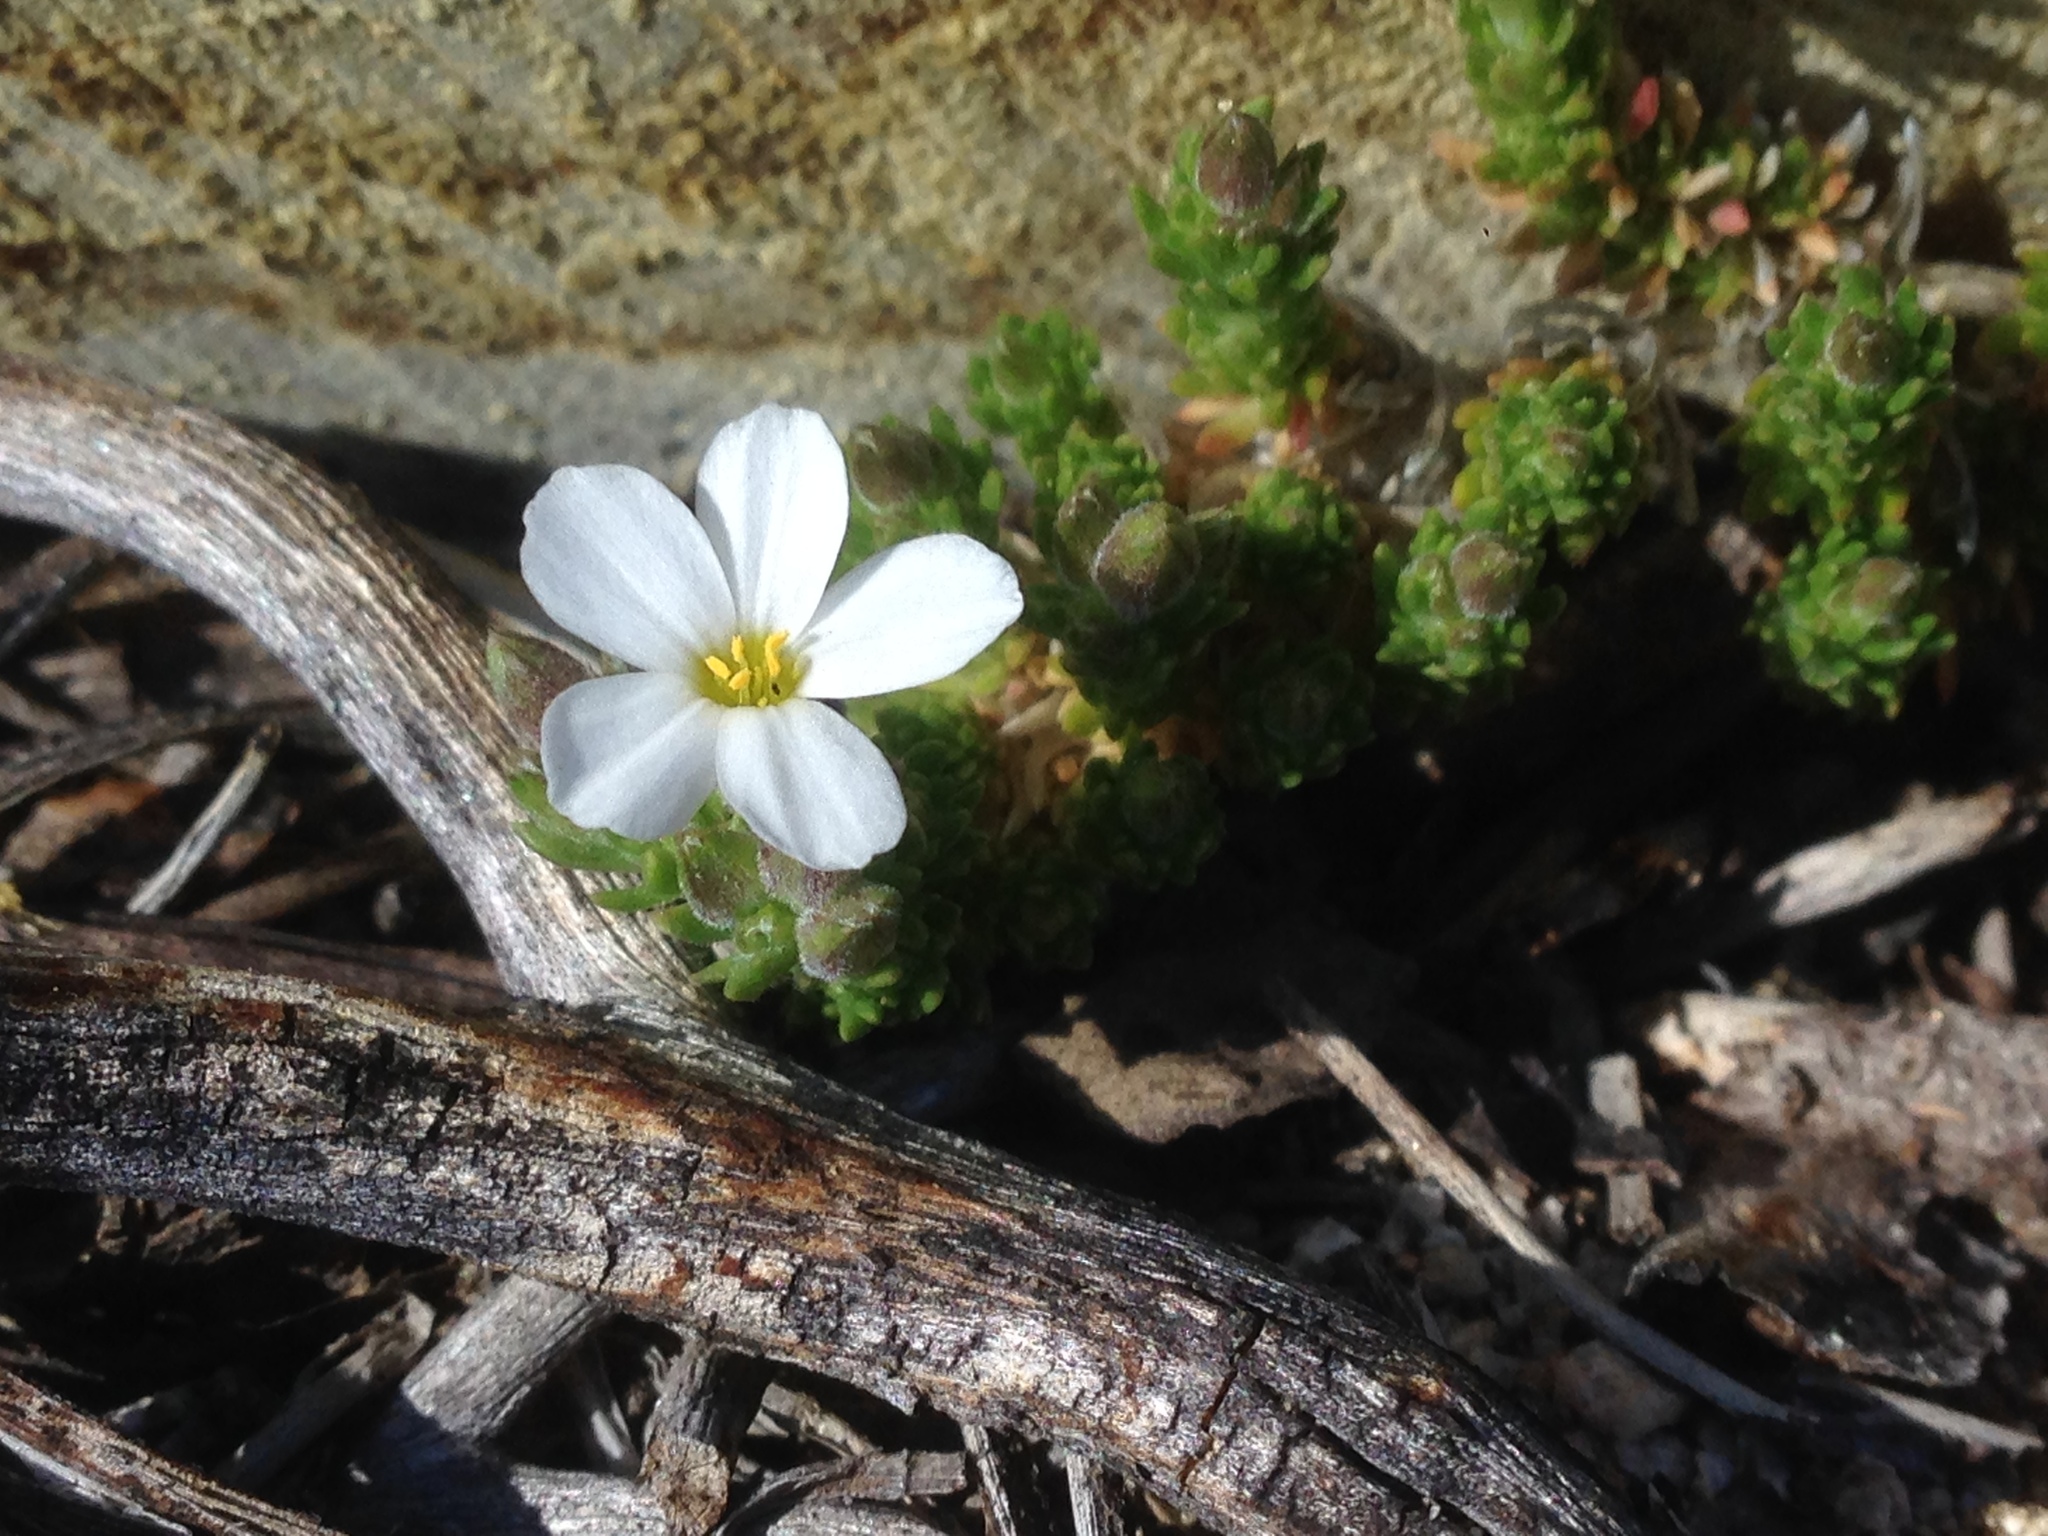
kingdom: Plantae
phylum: Tracheophyta
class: Magnoliopsida
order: Ericales
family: Polemoniaceae
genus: Leptosiphon
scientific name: Leptosiphon melingii
